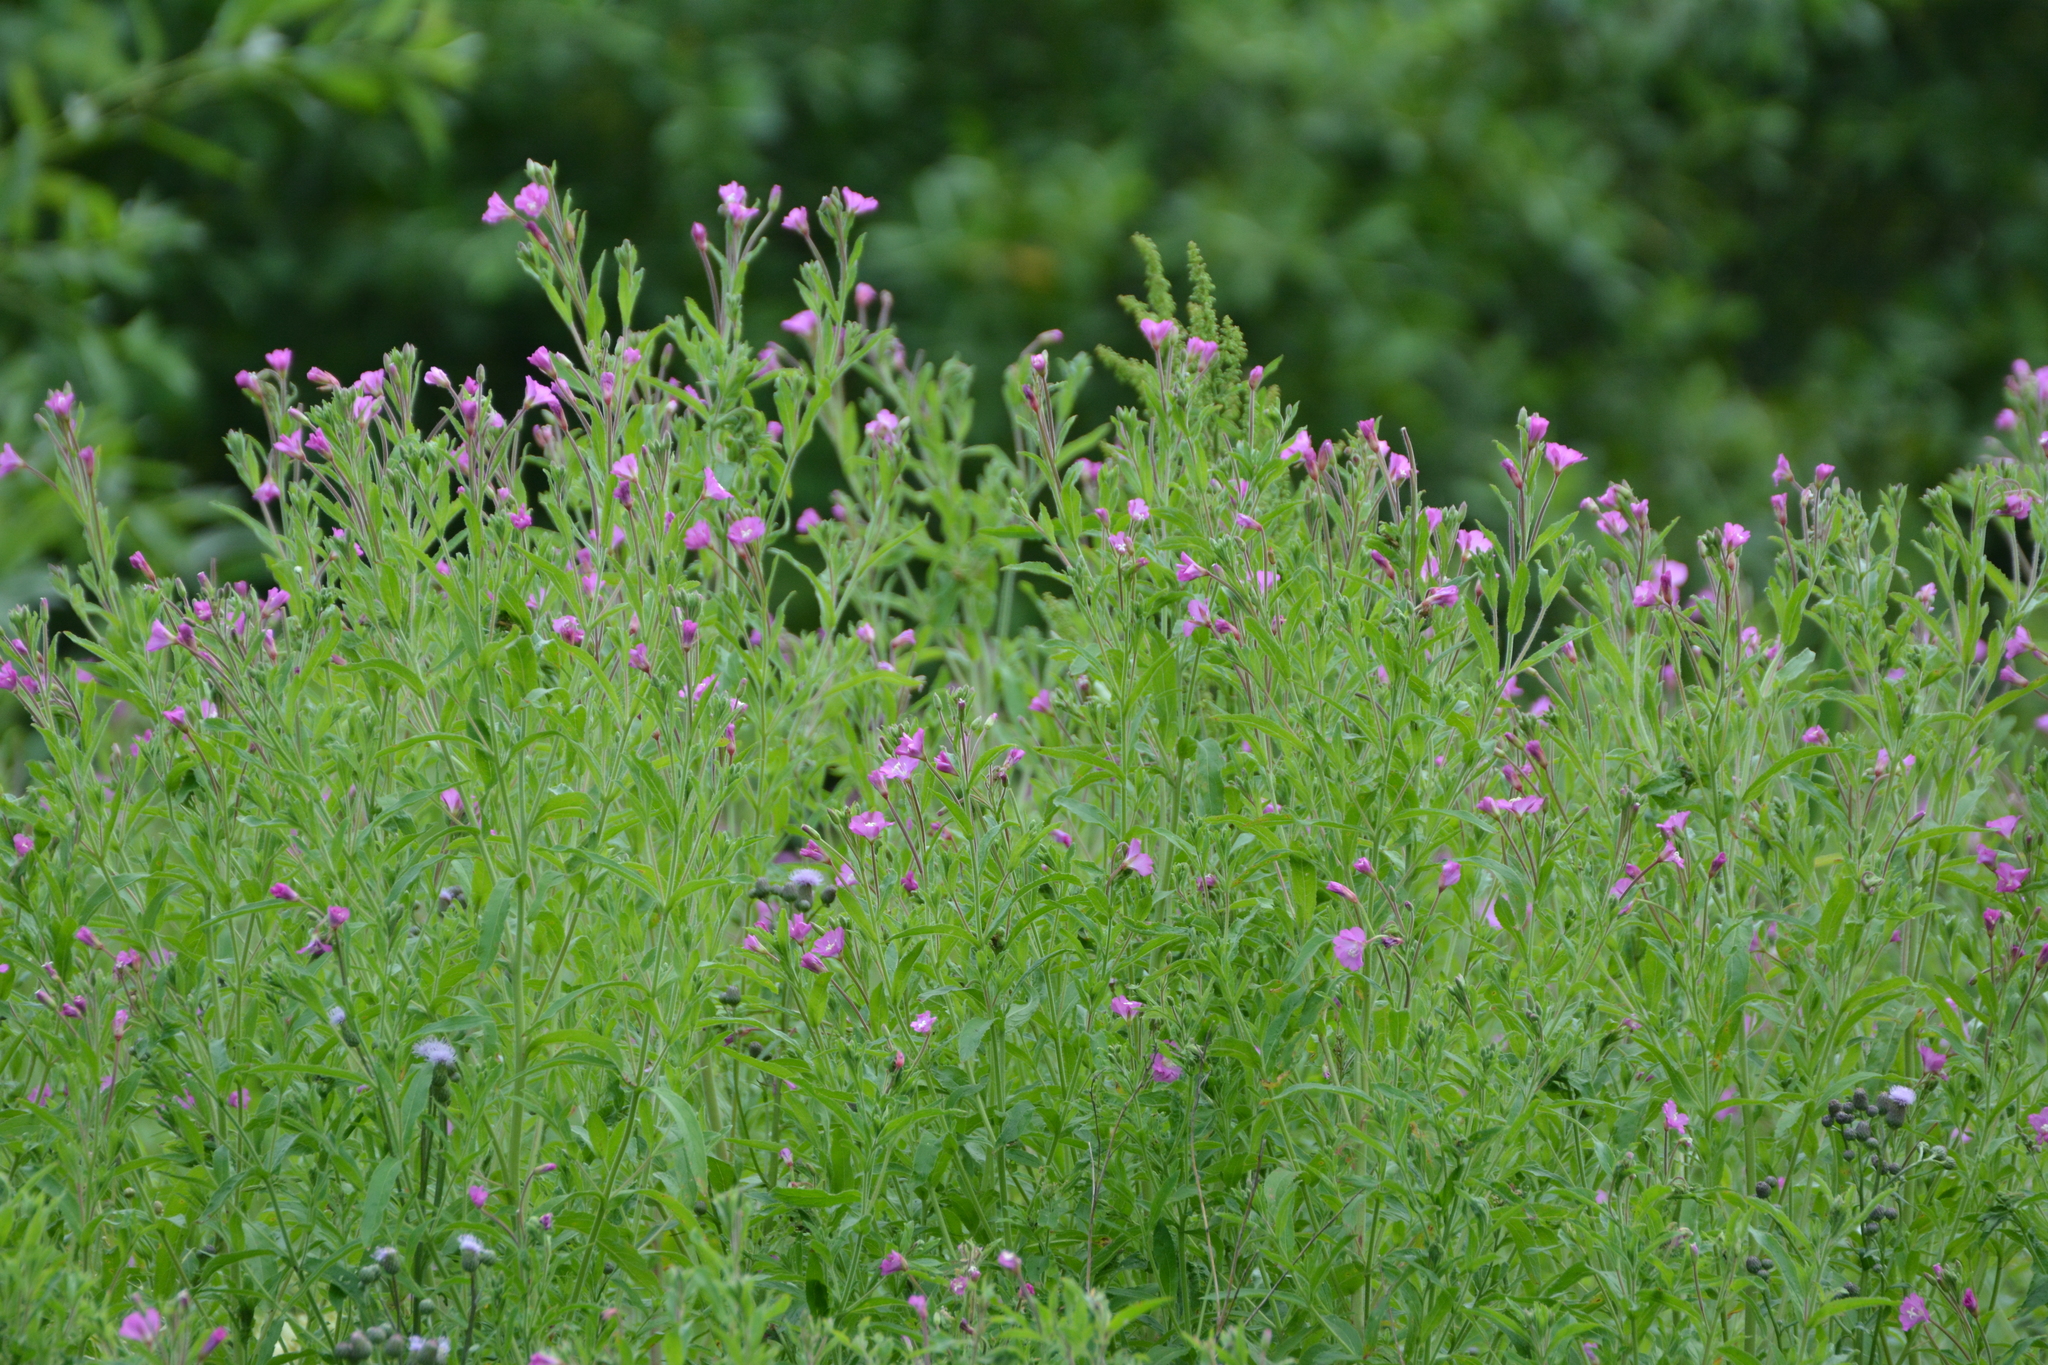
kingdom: Plantae
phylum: Tracheophyta
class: Magnoliopsida
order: Myrtales
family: Onagraceae
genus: Epilobium
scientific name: Epilobium hirsutum
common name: Great willowherb
